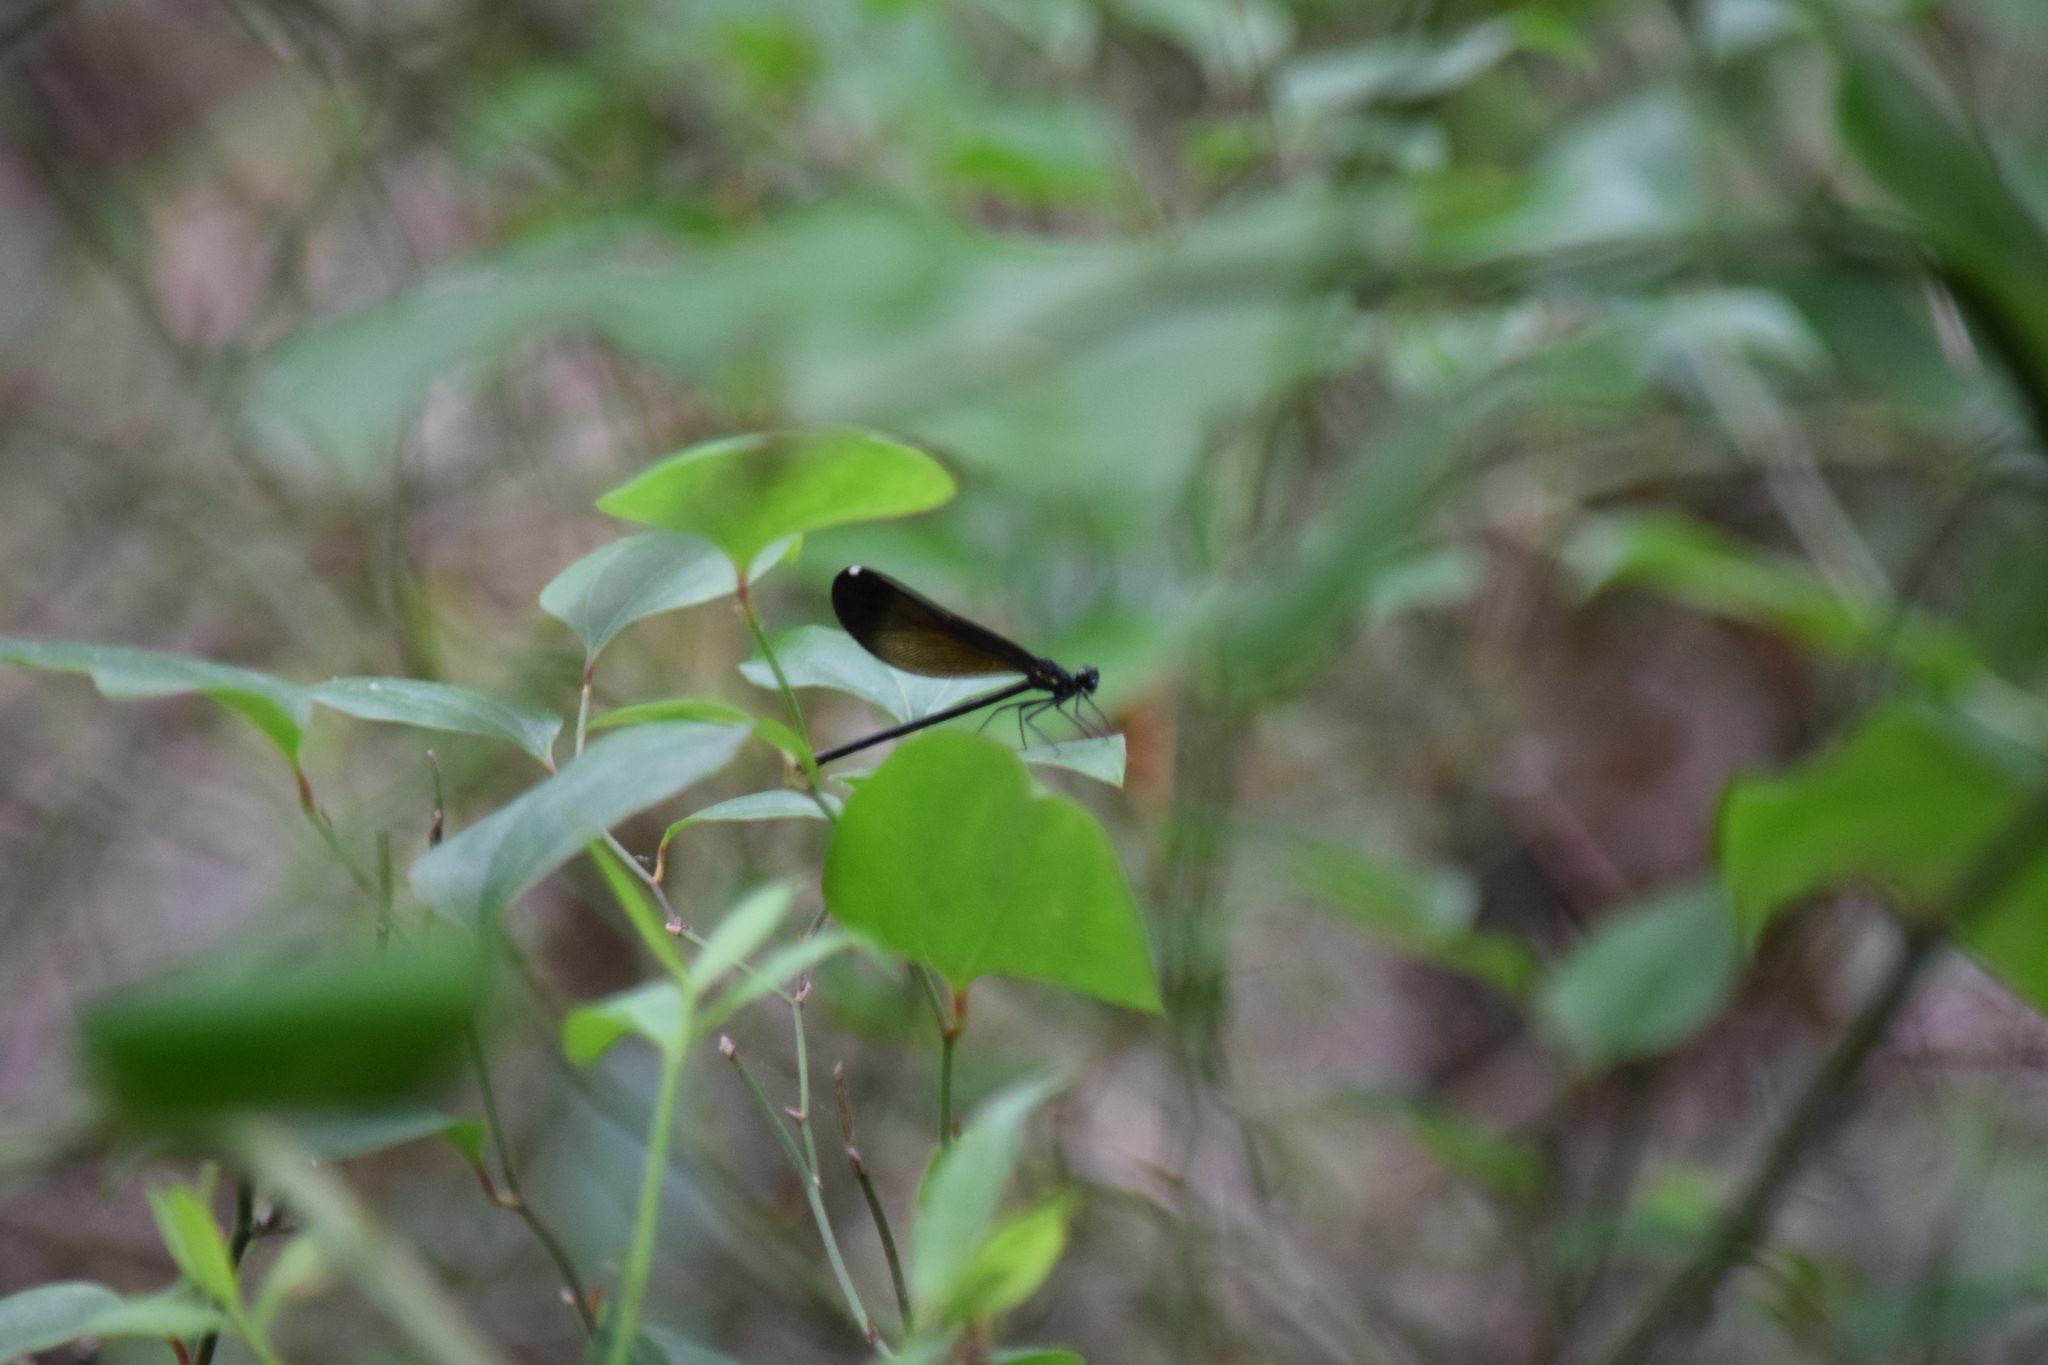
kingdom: Animalia
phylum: Arthropoda
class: Insecta
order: Odonata
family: Calopterygidae
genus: Calopteryx
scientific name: Calopteryx maculata
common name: Ebony jewelwing
